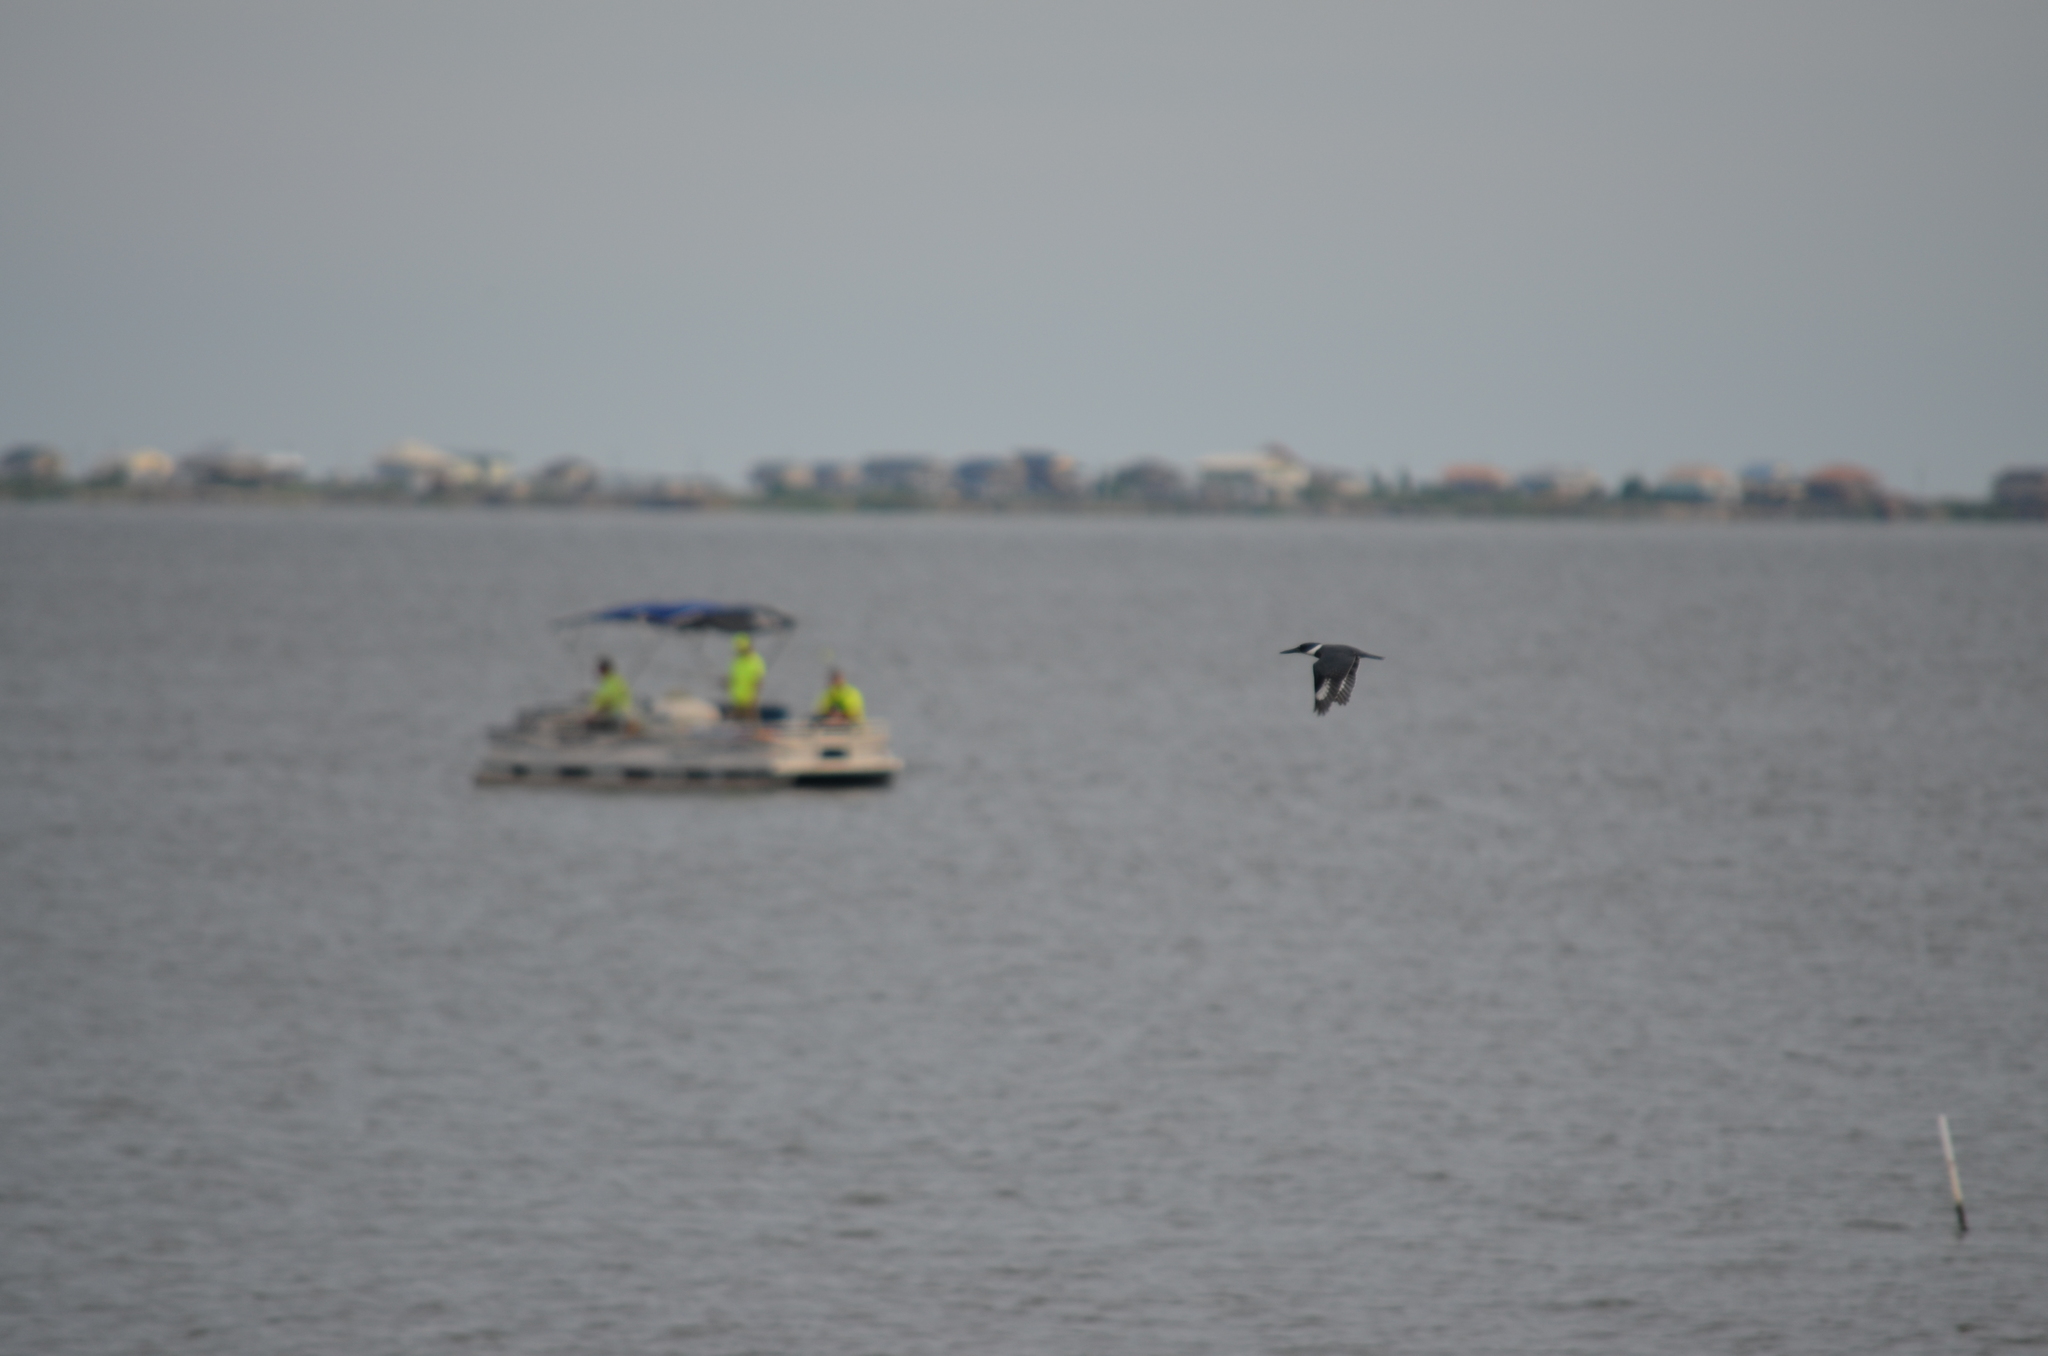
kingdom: Animalia
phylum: Chordata
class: Aves
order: Coraciiformes
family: Alcedinidae
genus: Megaceryle
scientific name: Megaceryle alcyon
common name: Belted kingfisher
